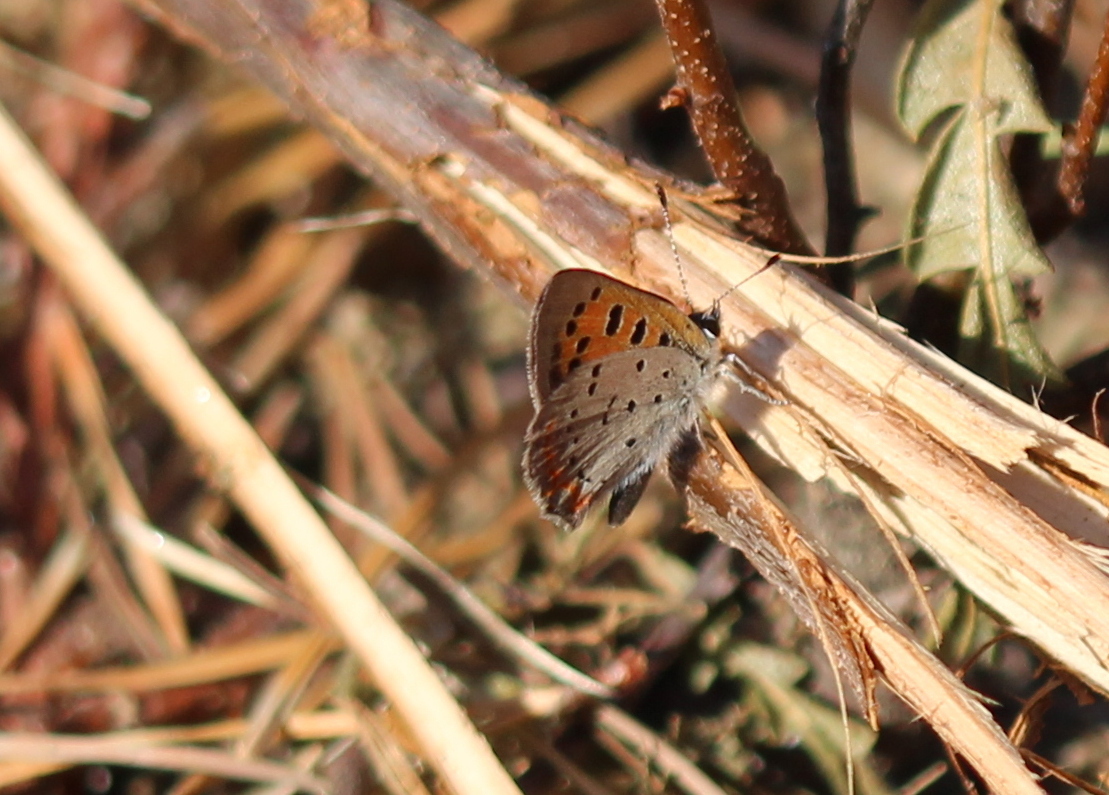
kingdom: Animalia
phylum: Arthropoda
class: Insecta
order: Lepidoptera
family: Lycaenidae
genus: Lycaena
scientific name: Lycaena hypophlaeas
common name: American copper
